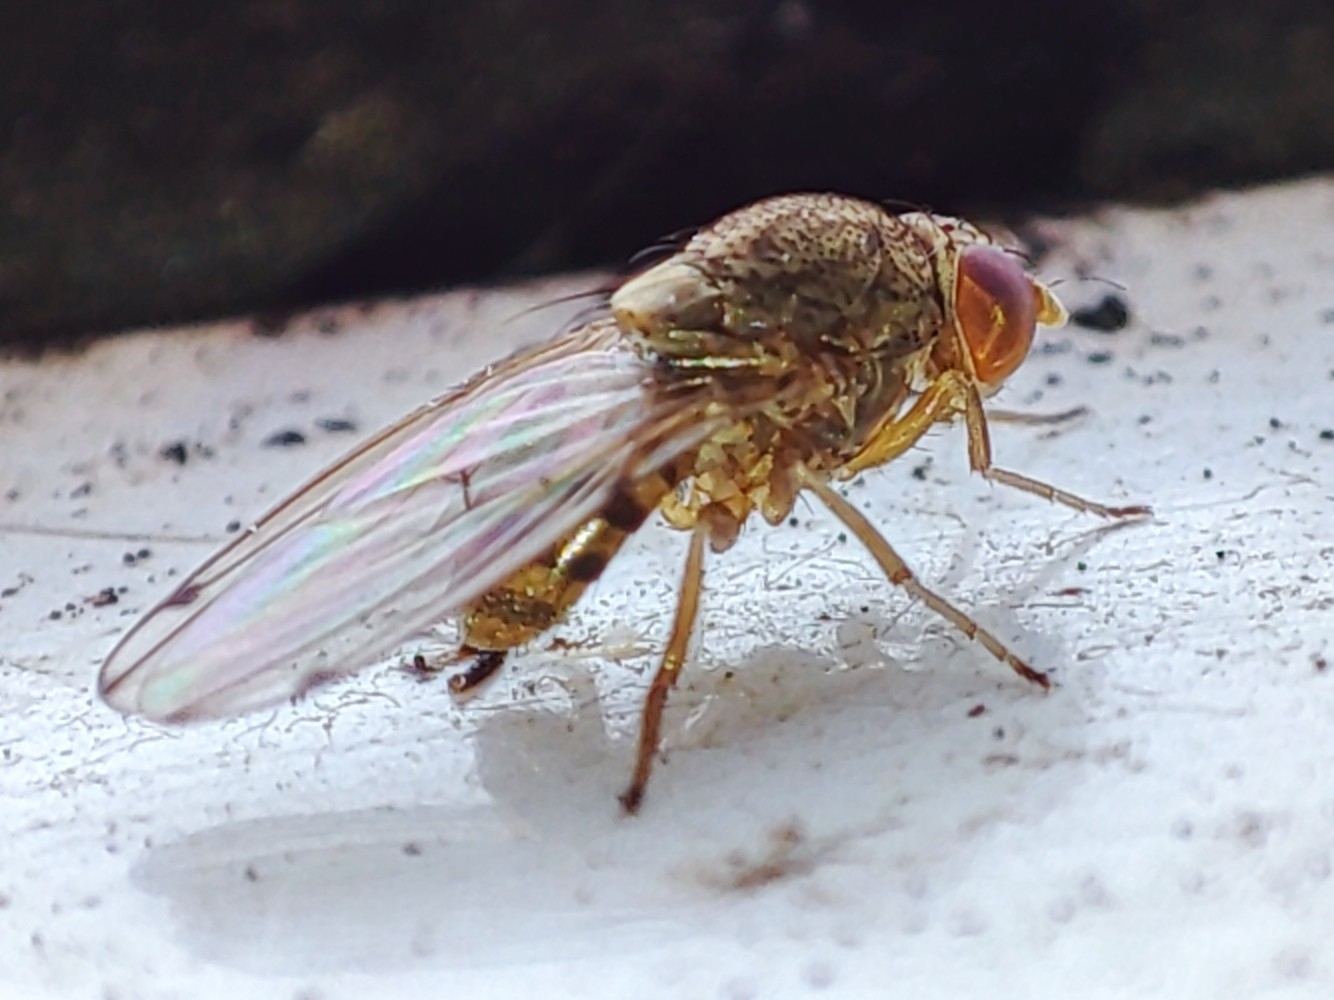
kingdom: Animalia
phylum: Arthropoda
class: Insecta
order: Diptera
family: Drosophilidae
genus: Gitona
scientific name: Gitona distigma
